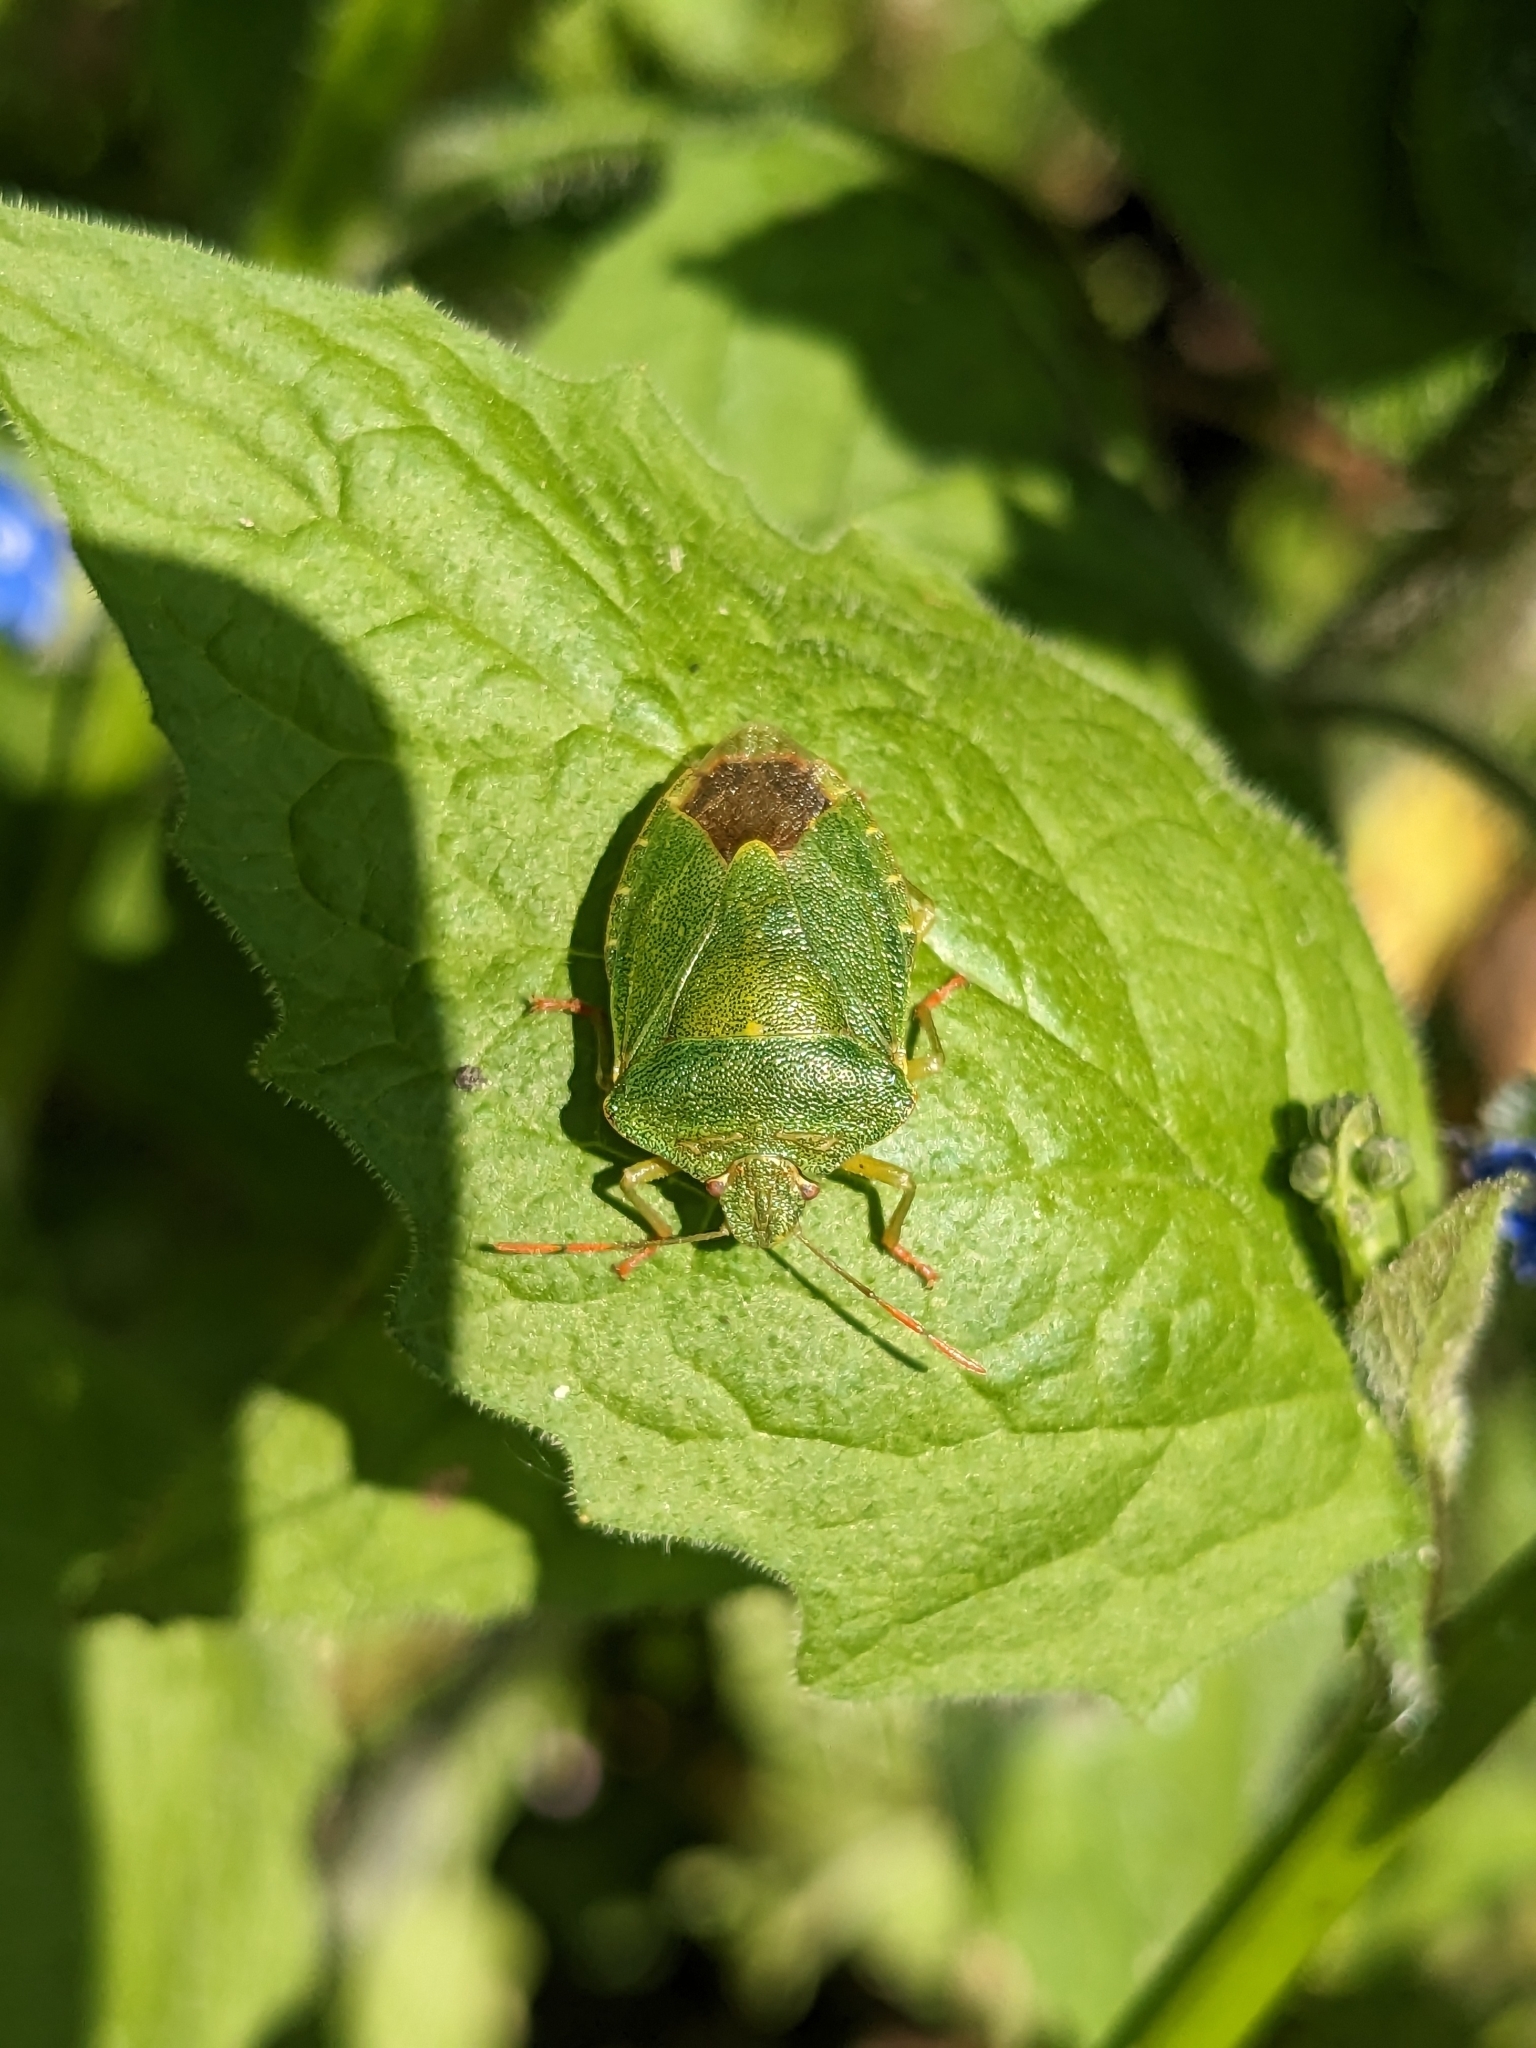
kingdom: Animalia
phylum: Arthropoda
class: Insecta
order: Hemiptera
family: Pentatomidae
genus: Palomena
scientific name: Palomena prasina
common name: Green shieldbug
